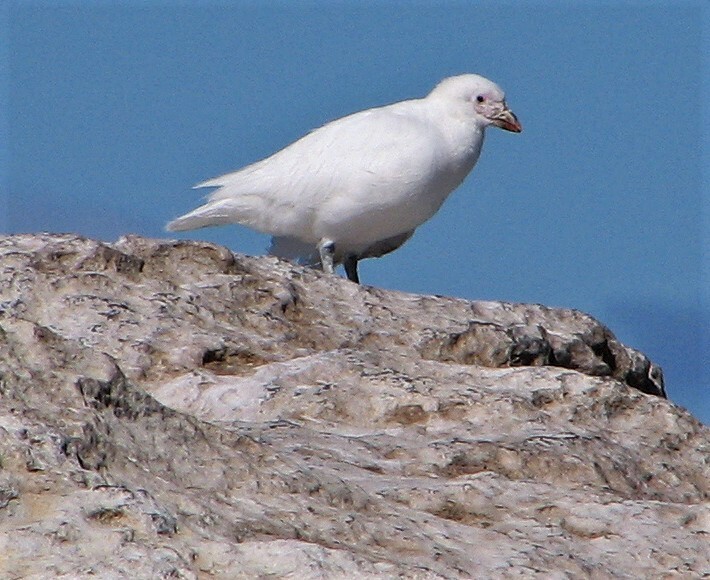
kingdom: Animalia
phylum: Chordata
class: Aves
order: Charadriiformes
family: Chionidae
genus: Chionis
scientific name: Chionis albus
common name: Snowy sheathbill
